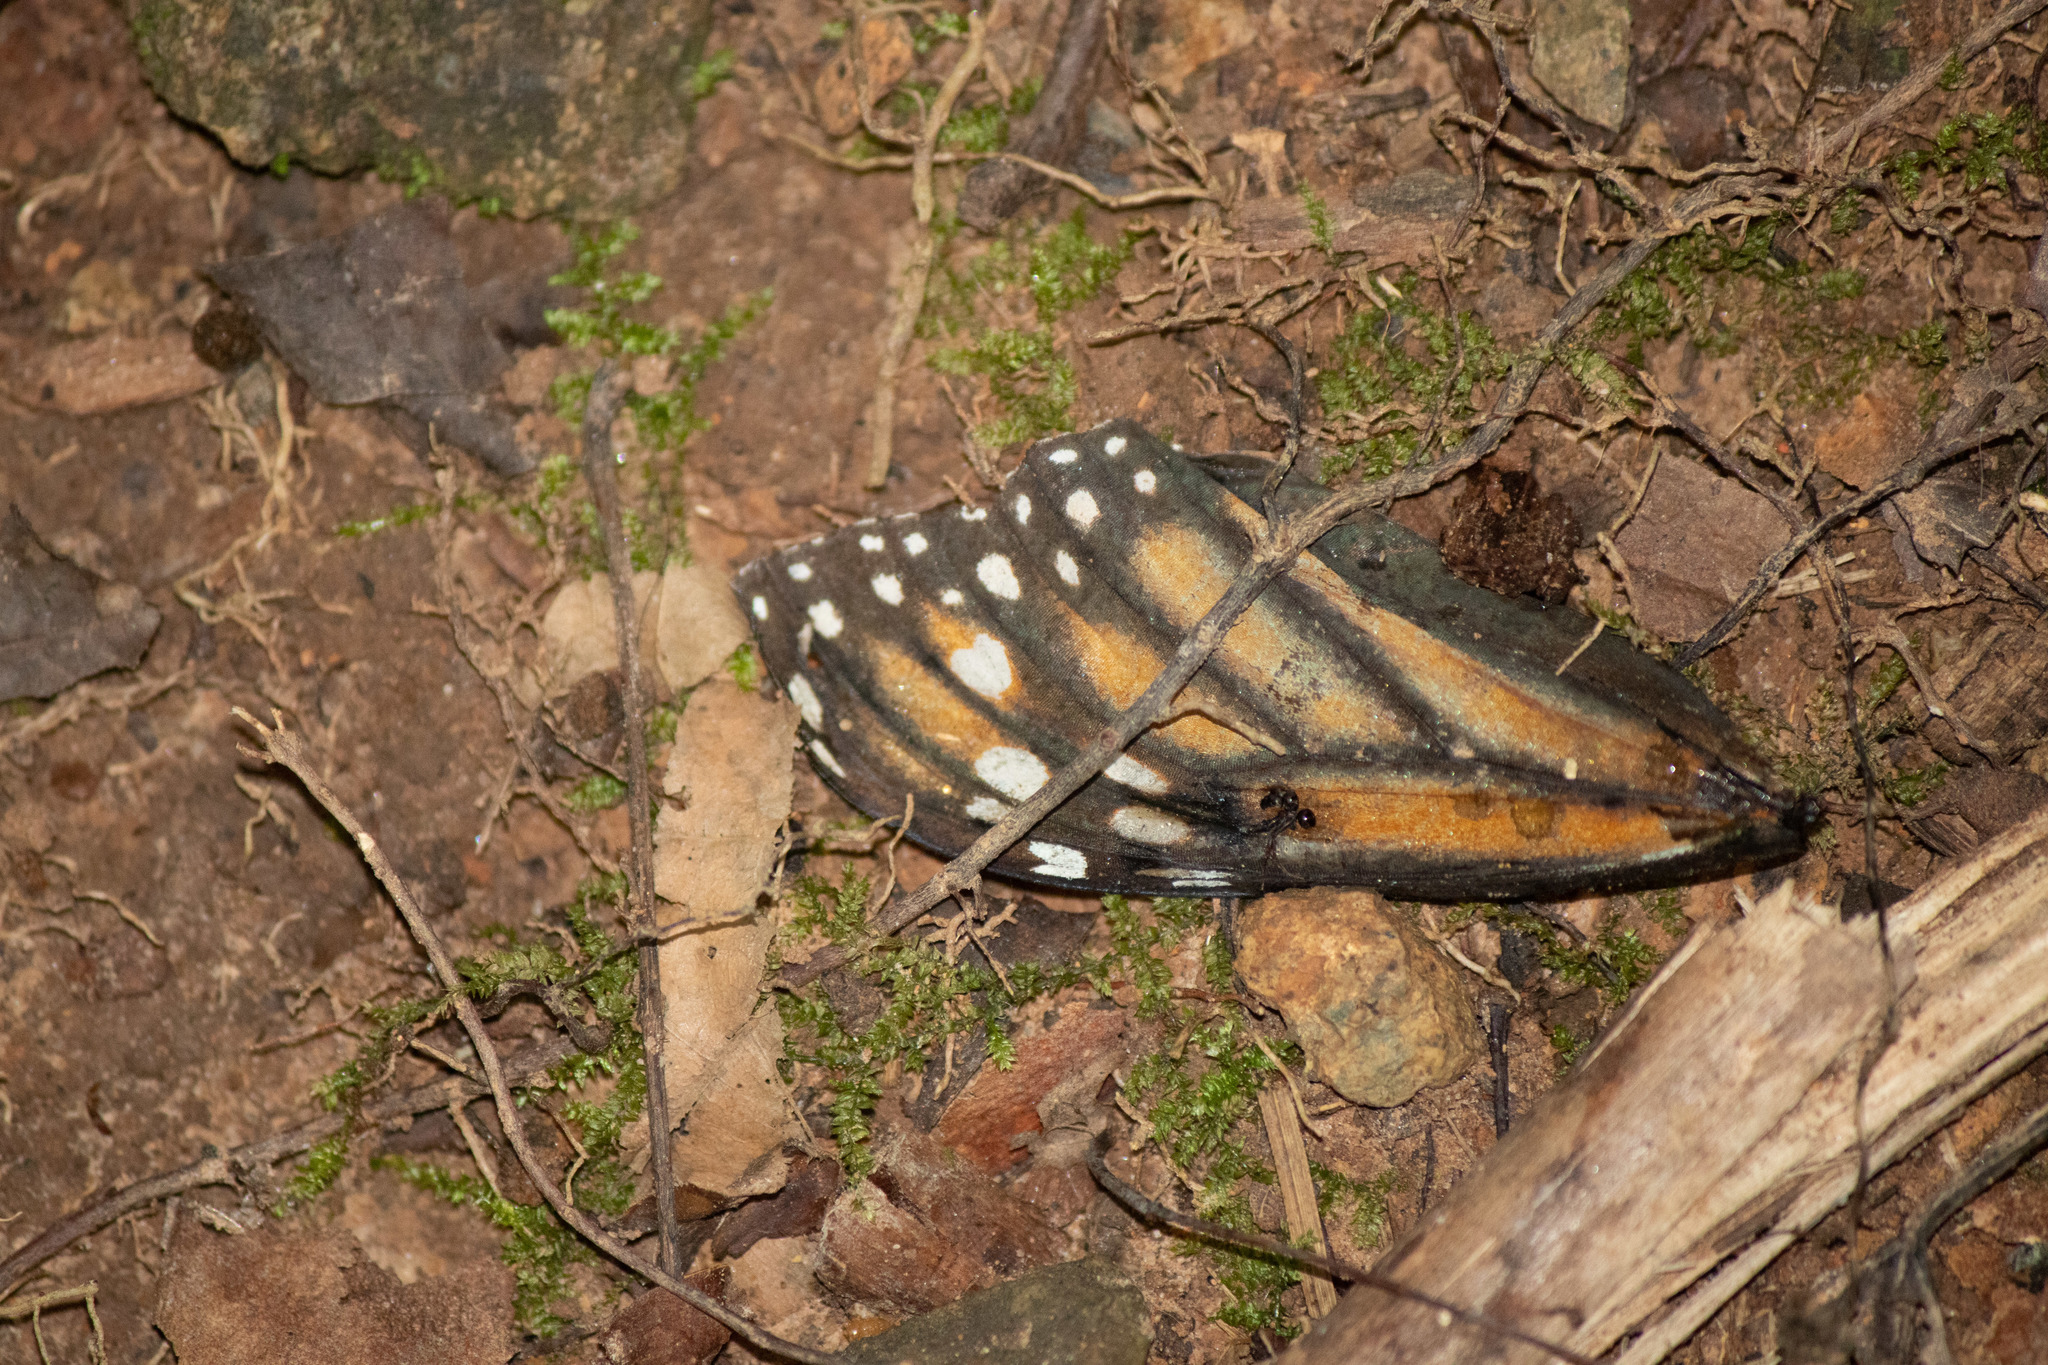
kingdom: Animalia
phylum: Arthropoda
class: Insecta
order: Lepidoptera
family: Nymphalidae
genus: Danaus
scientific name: Danaus plexippus
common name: Monarch
